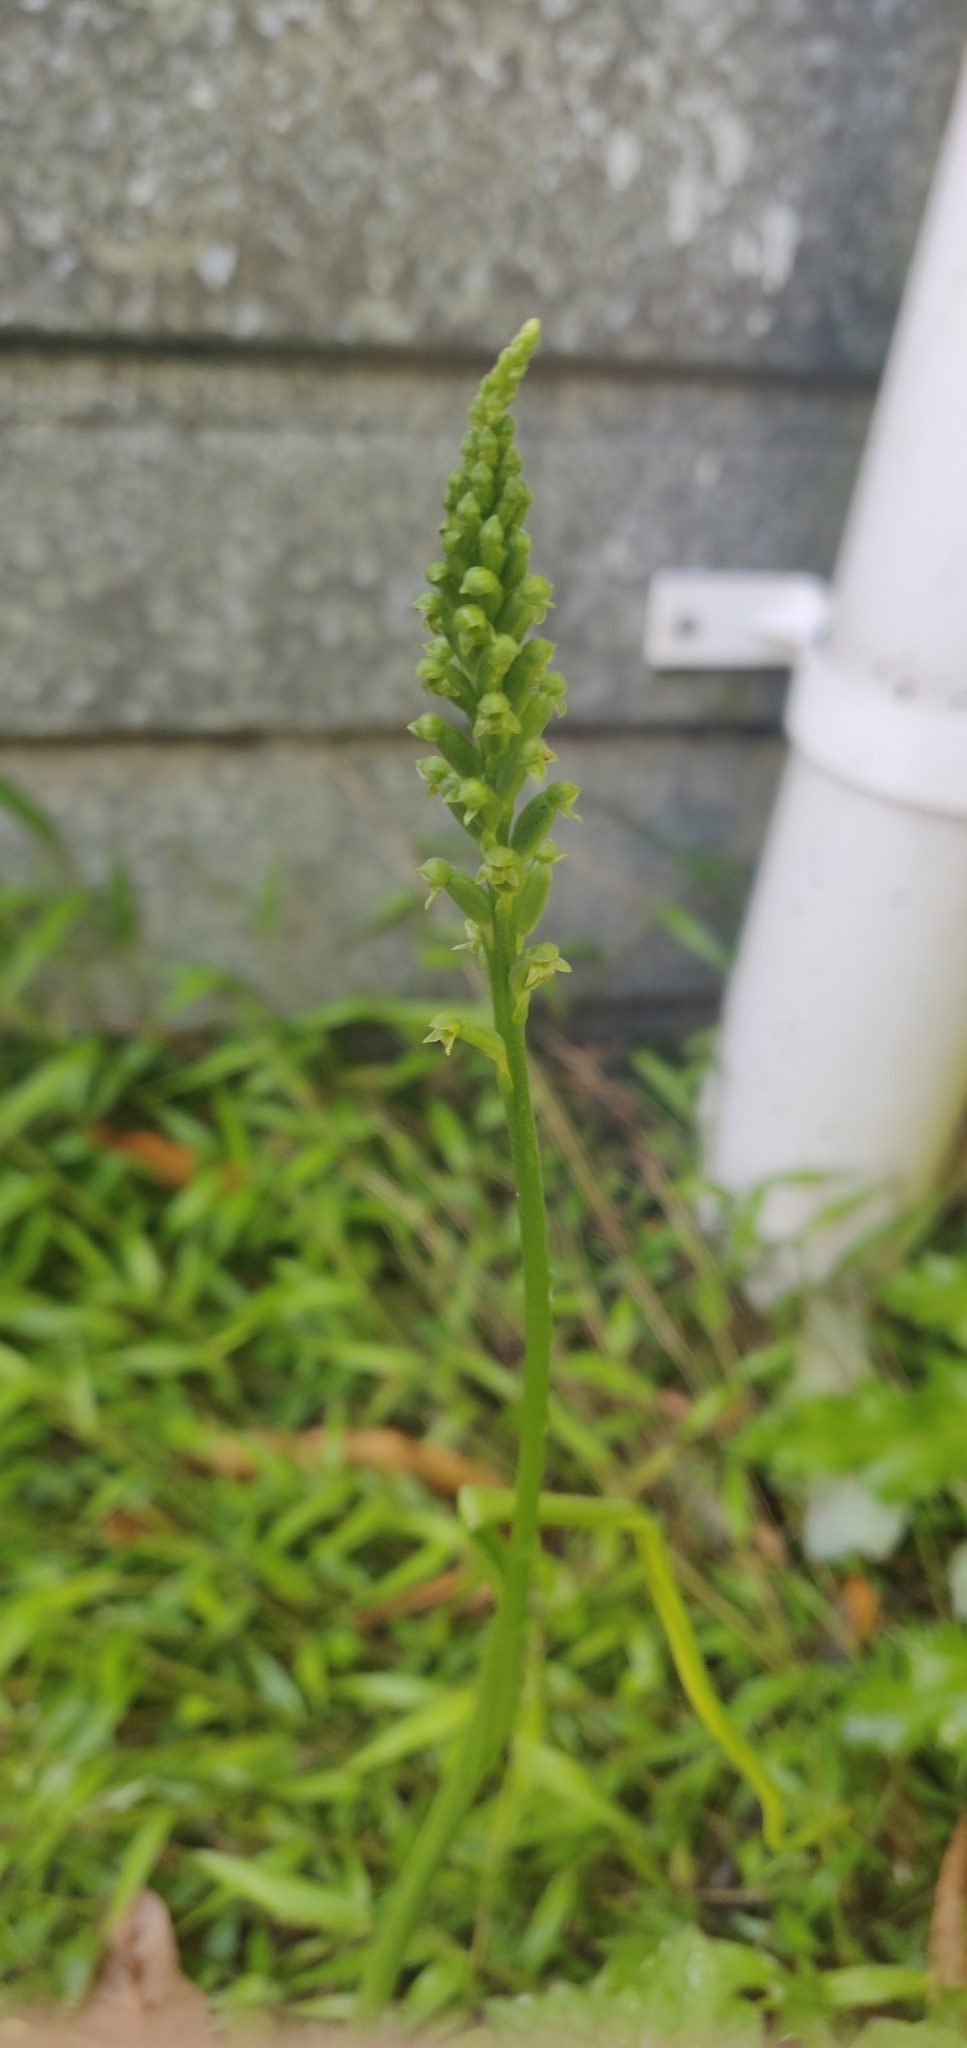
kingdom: Plantae
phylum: Tracheophyta
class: Liliopsida
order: Asparagales
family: Orchidaceae
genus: Microtis
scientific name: Microtis unifolia
